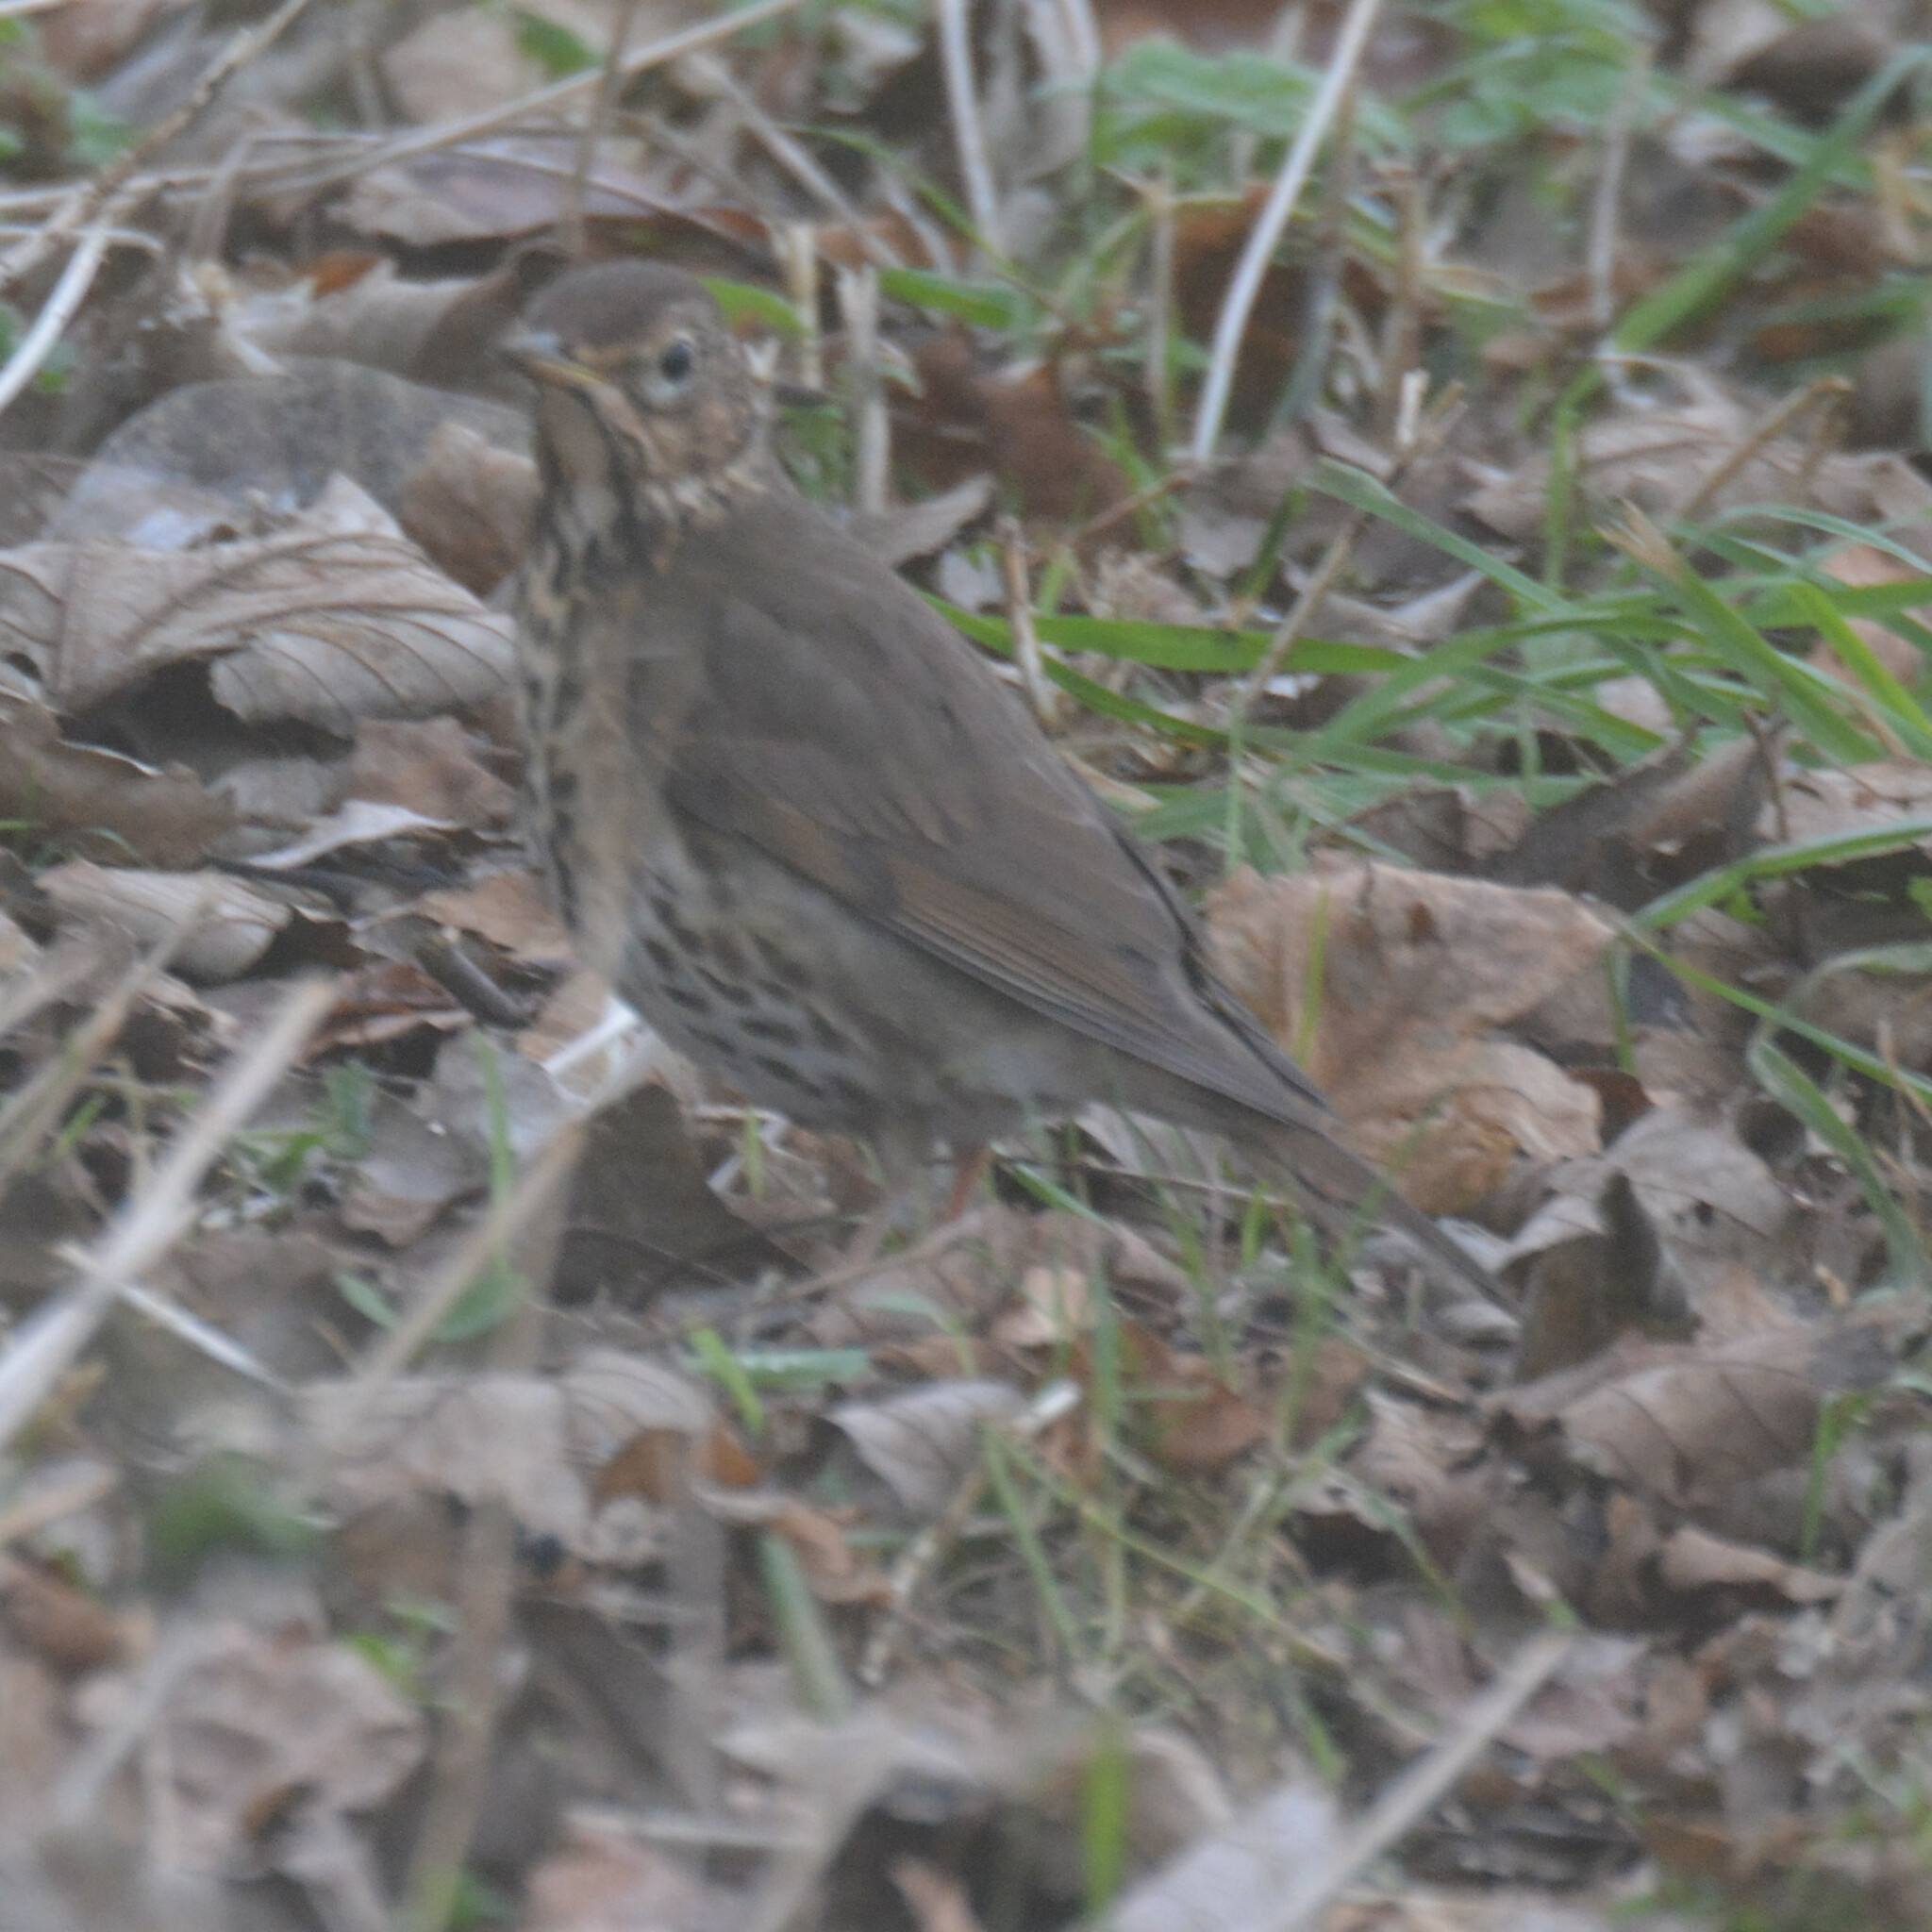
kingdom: Animalia
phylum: Chordata
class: Aves
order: Passeriformes
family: Turdidae
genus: Turdus
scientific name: Turdus philomelos
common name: Song thrush
